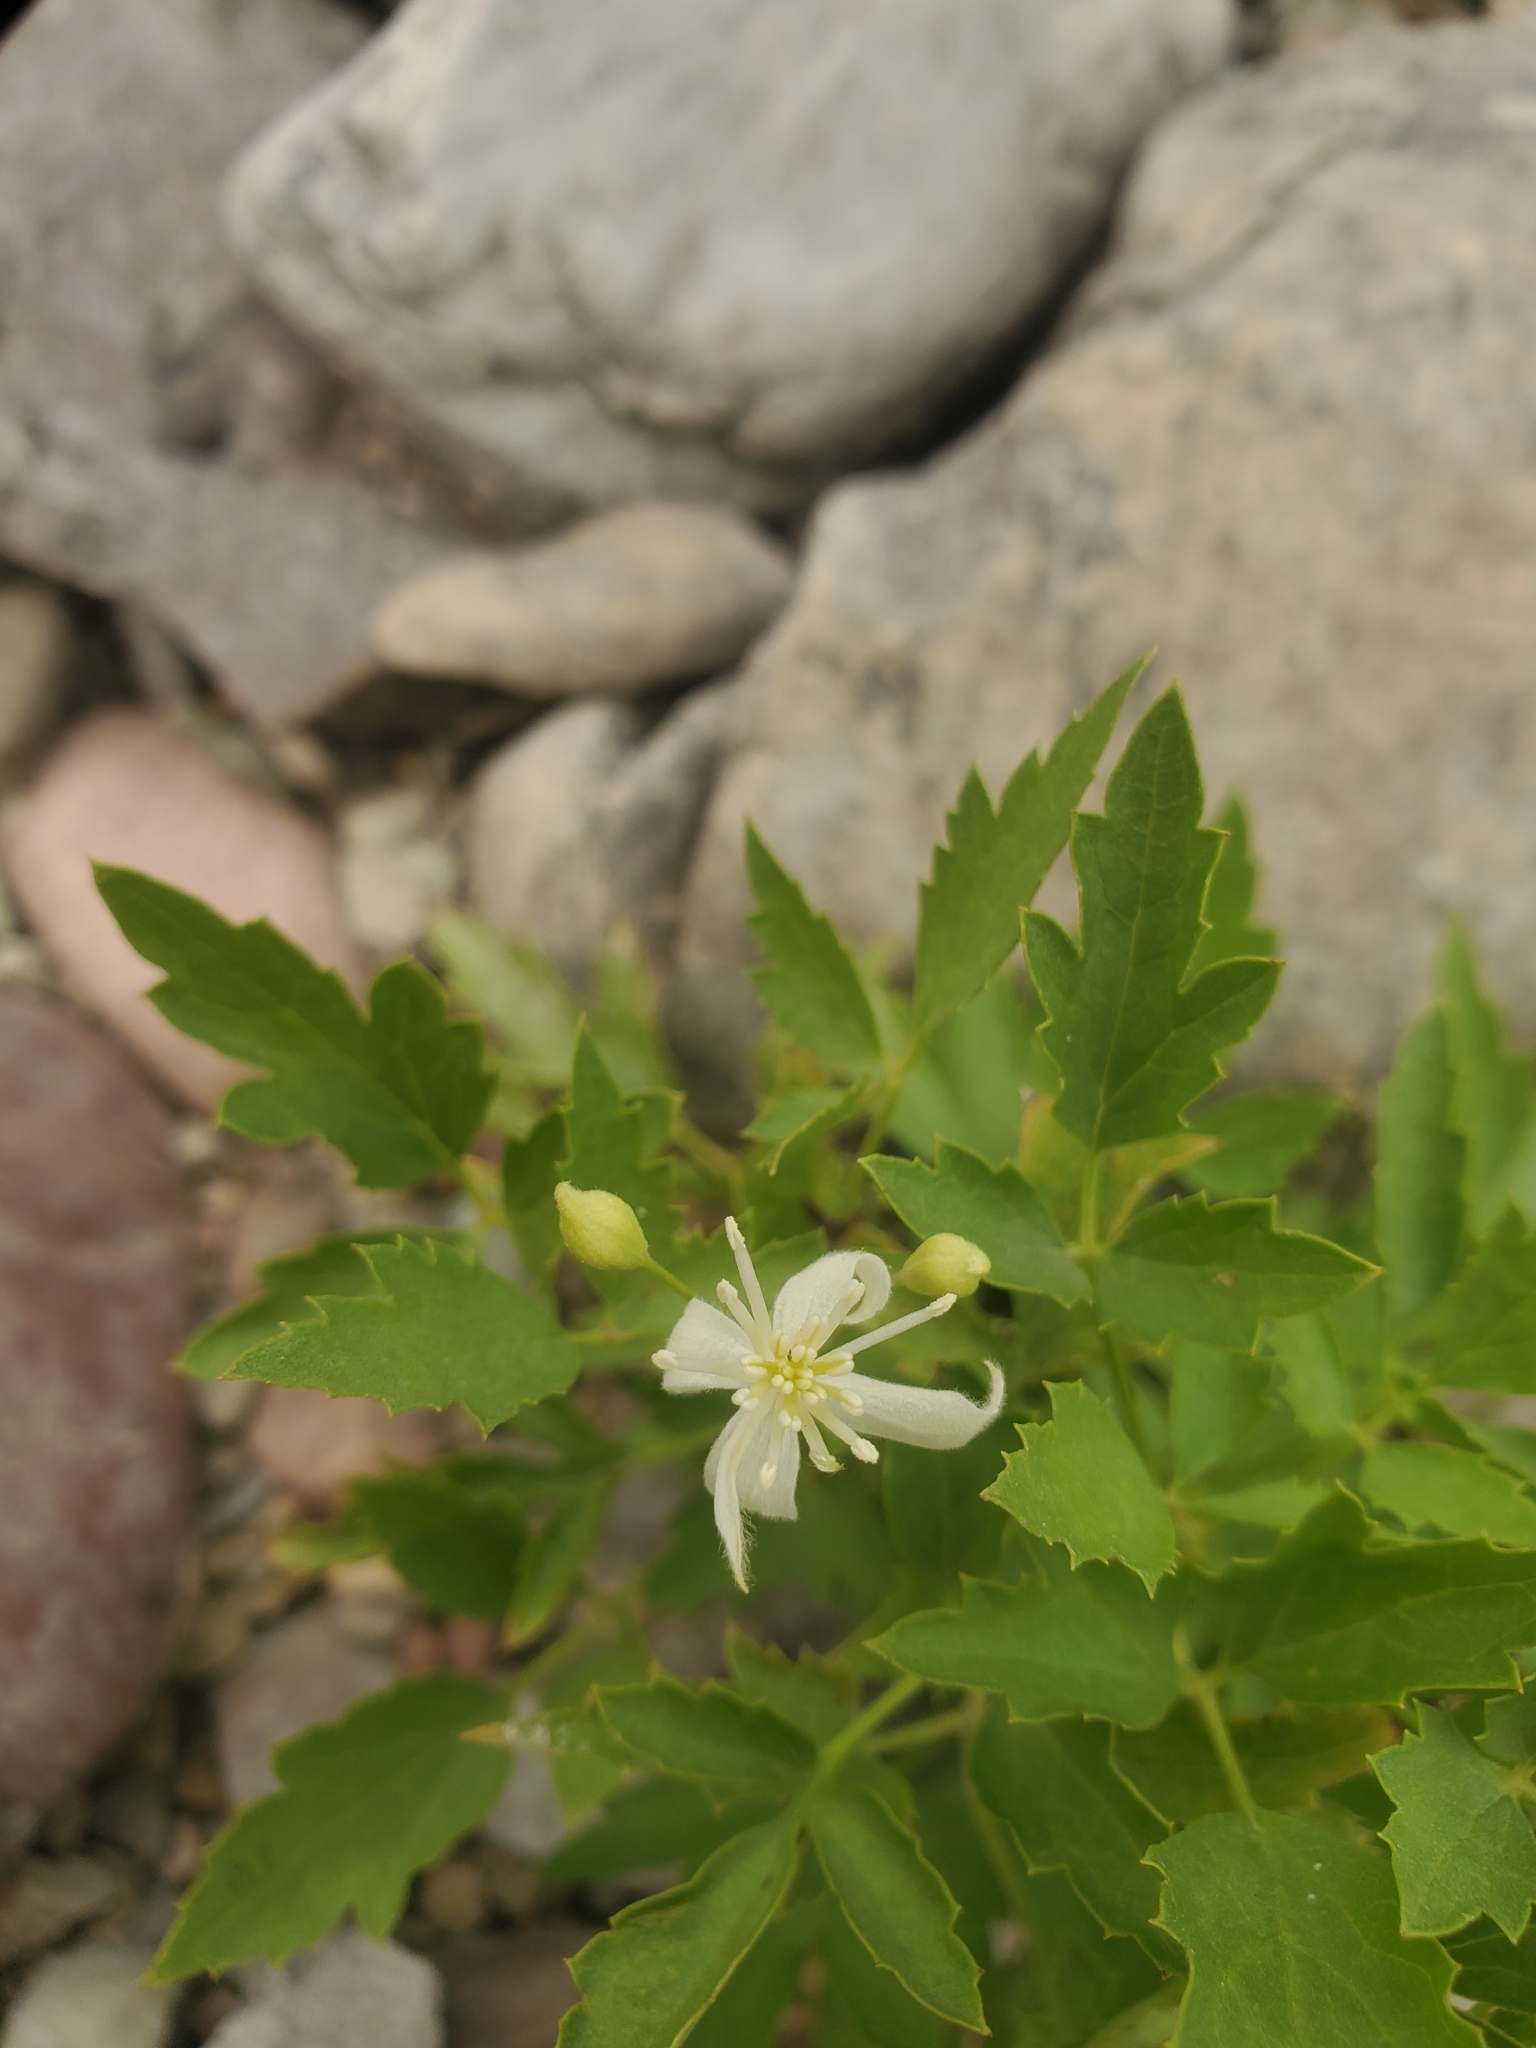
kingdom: Plantae
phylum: Tracheophyta
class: Magnoliopsida
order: Ranunculales
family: Ranunculaceae
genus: Clematis
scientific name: Clematis ligusticifolia
